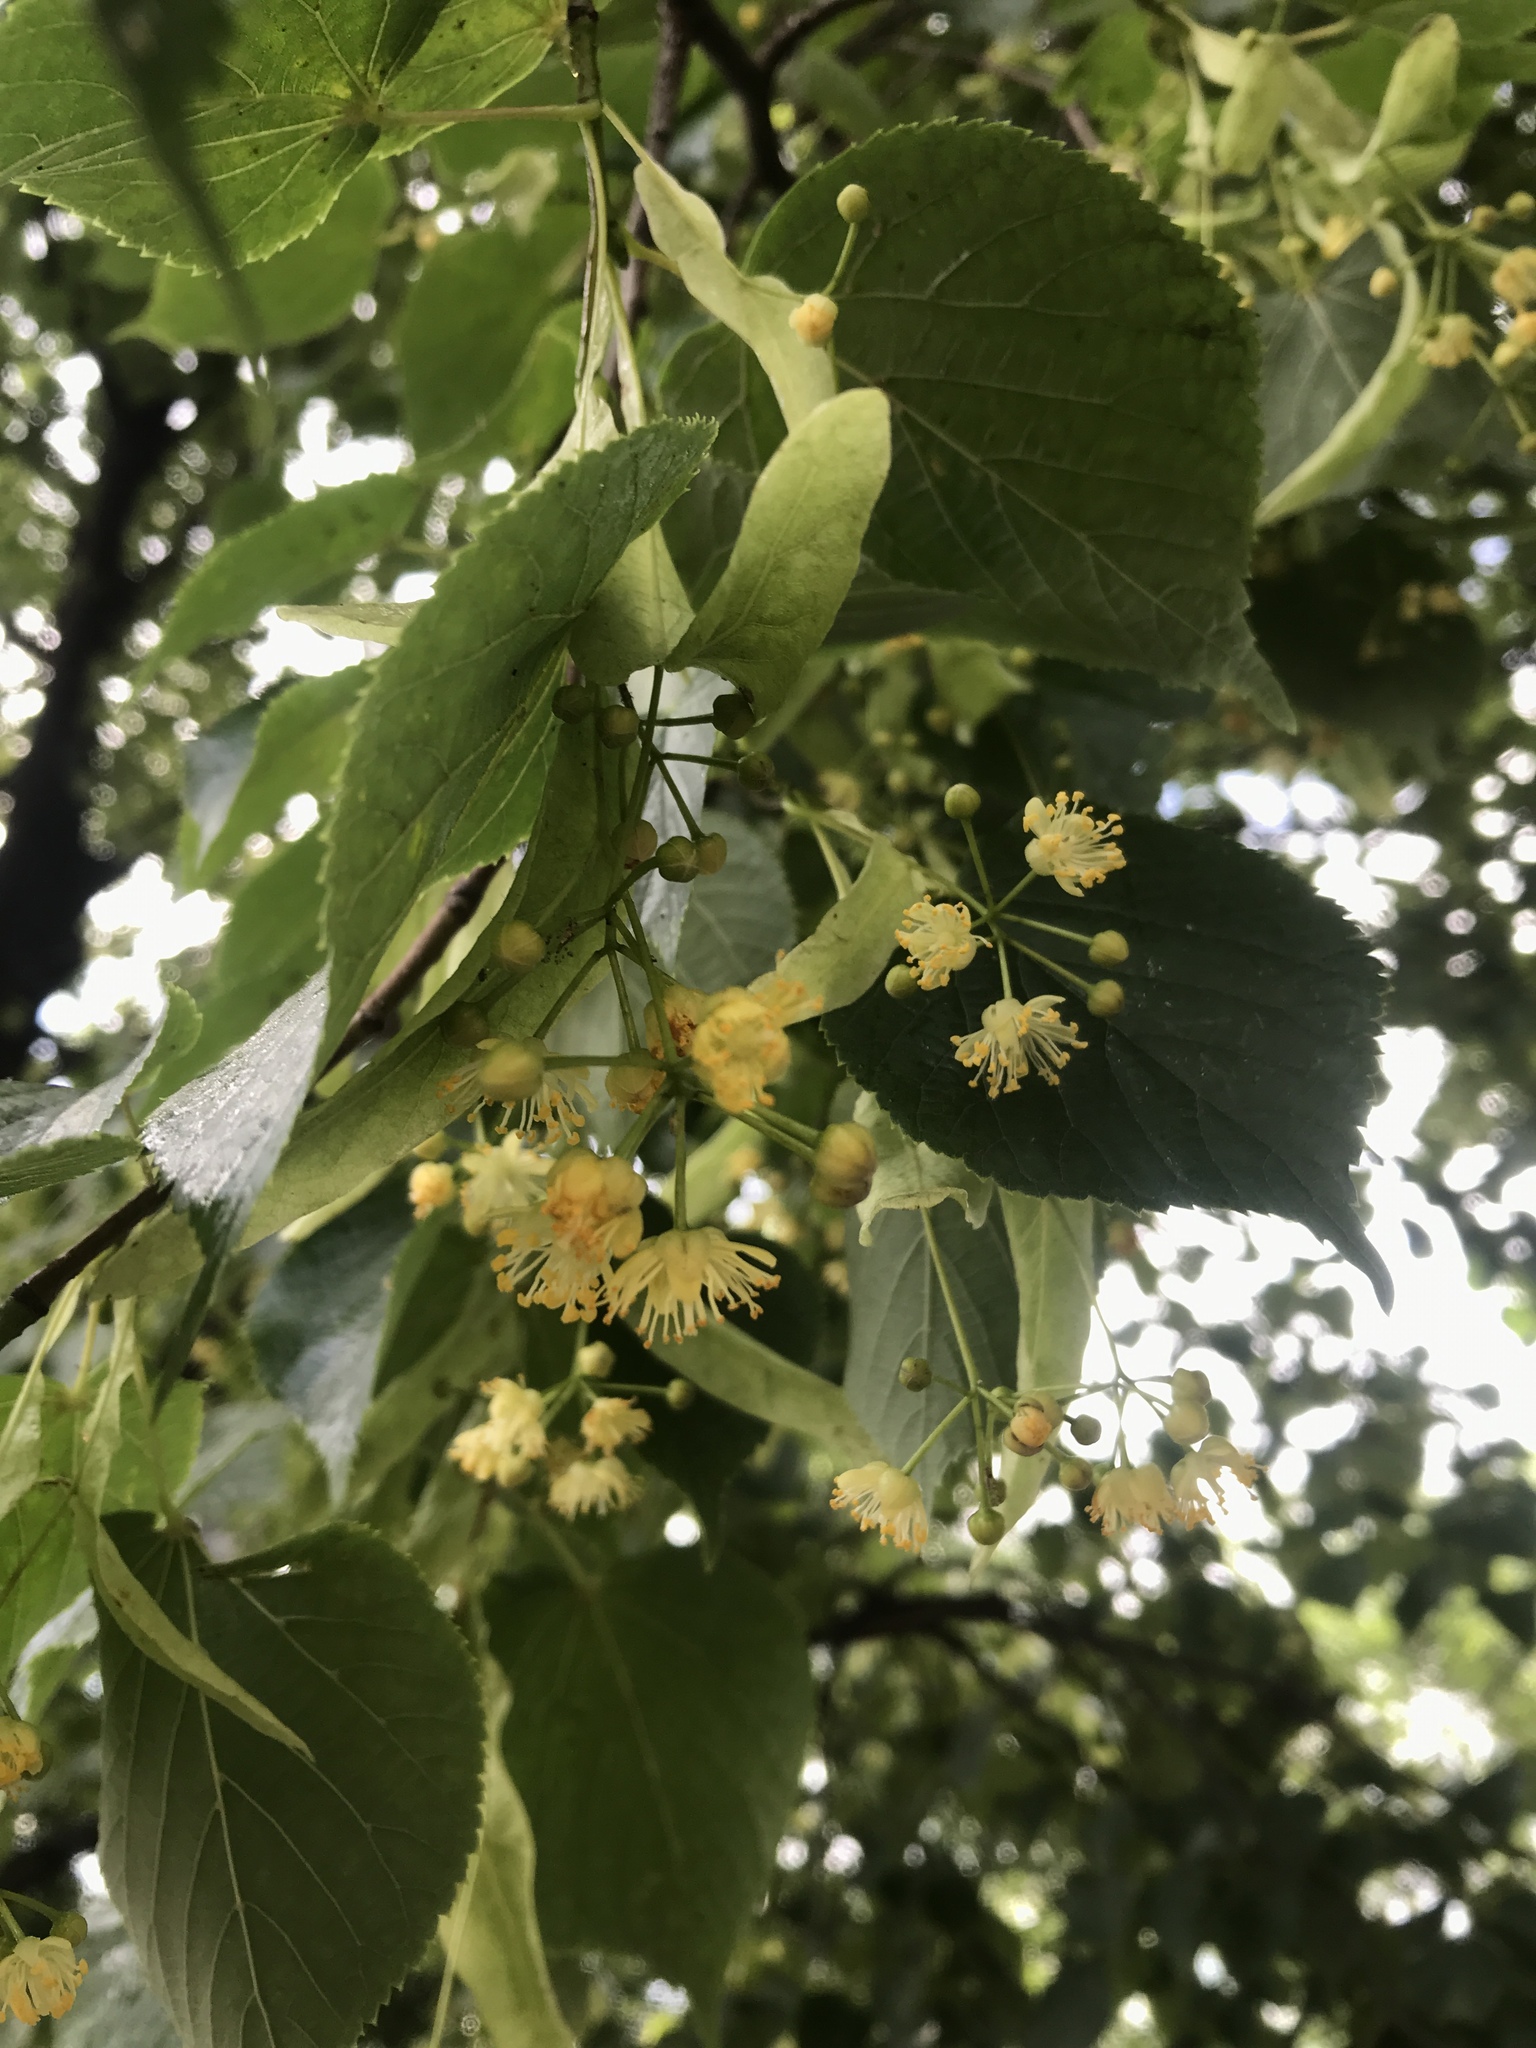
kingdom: Plantae
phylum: Tracheophyta
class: Magnoliopsida
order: Malvales
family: Malvaceae
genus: Tilia
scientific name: Tilia cordata
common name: Small-leaved lime
